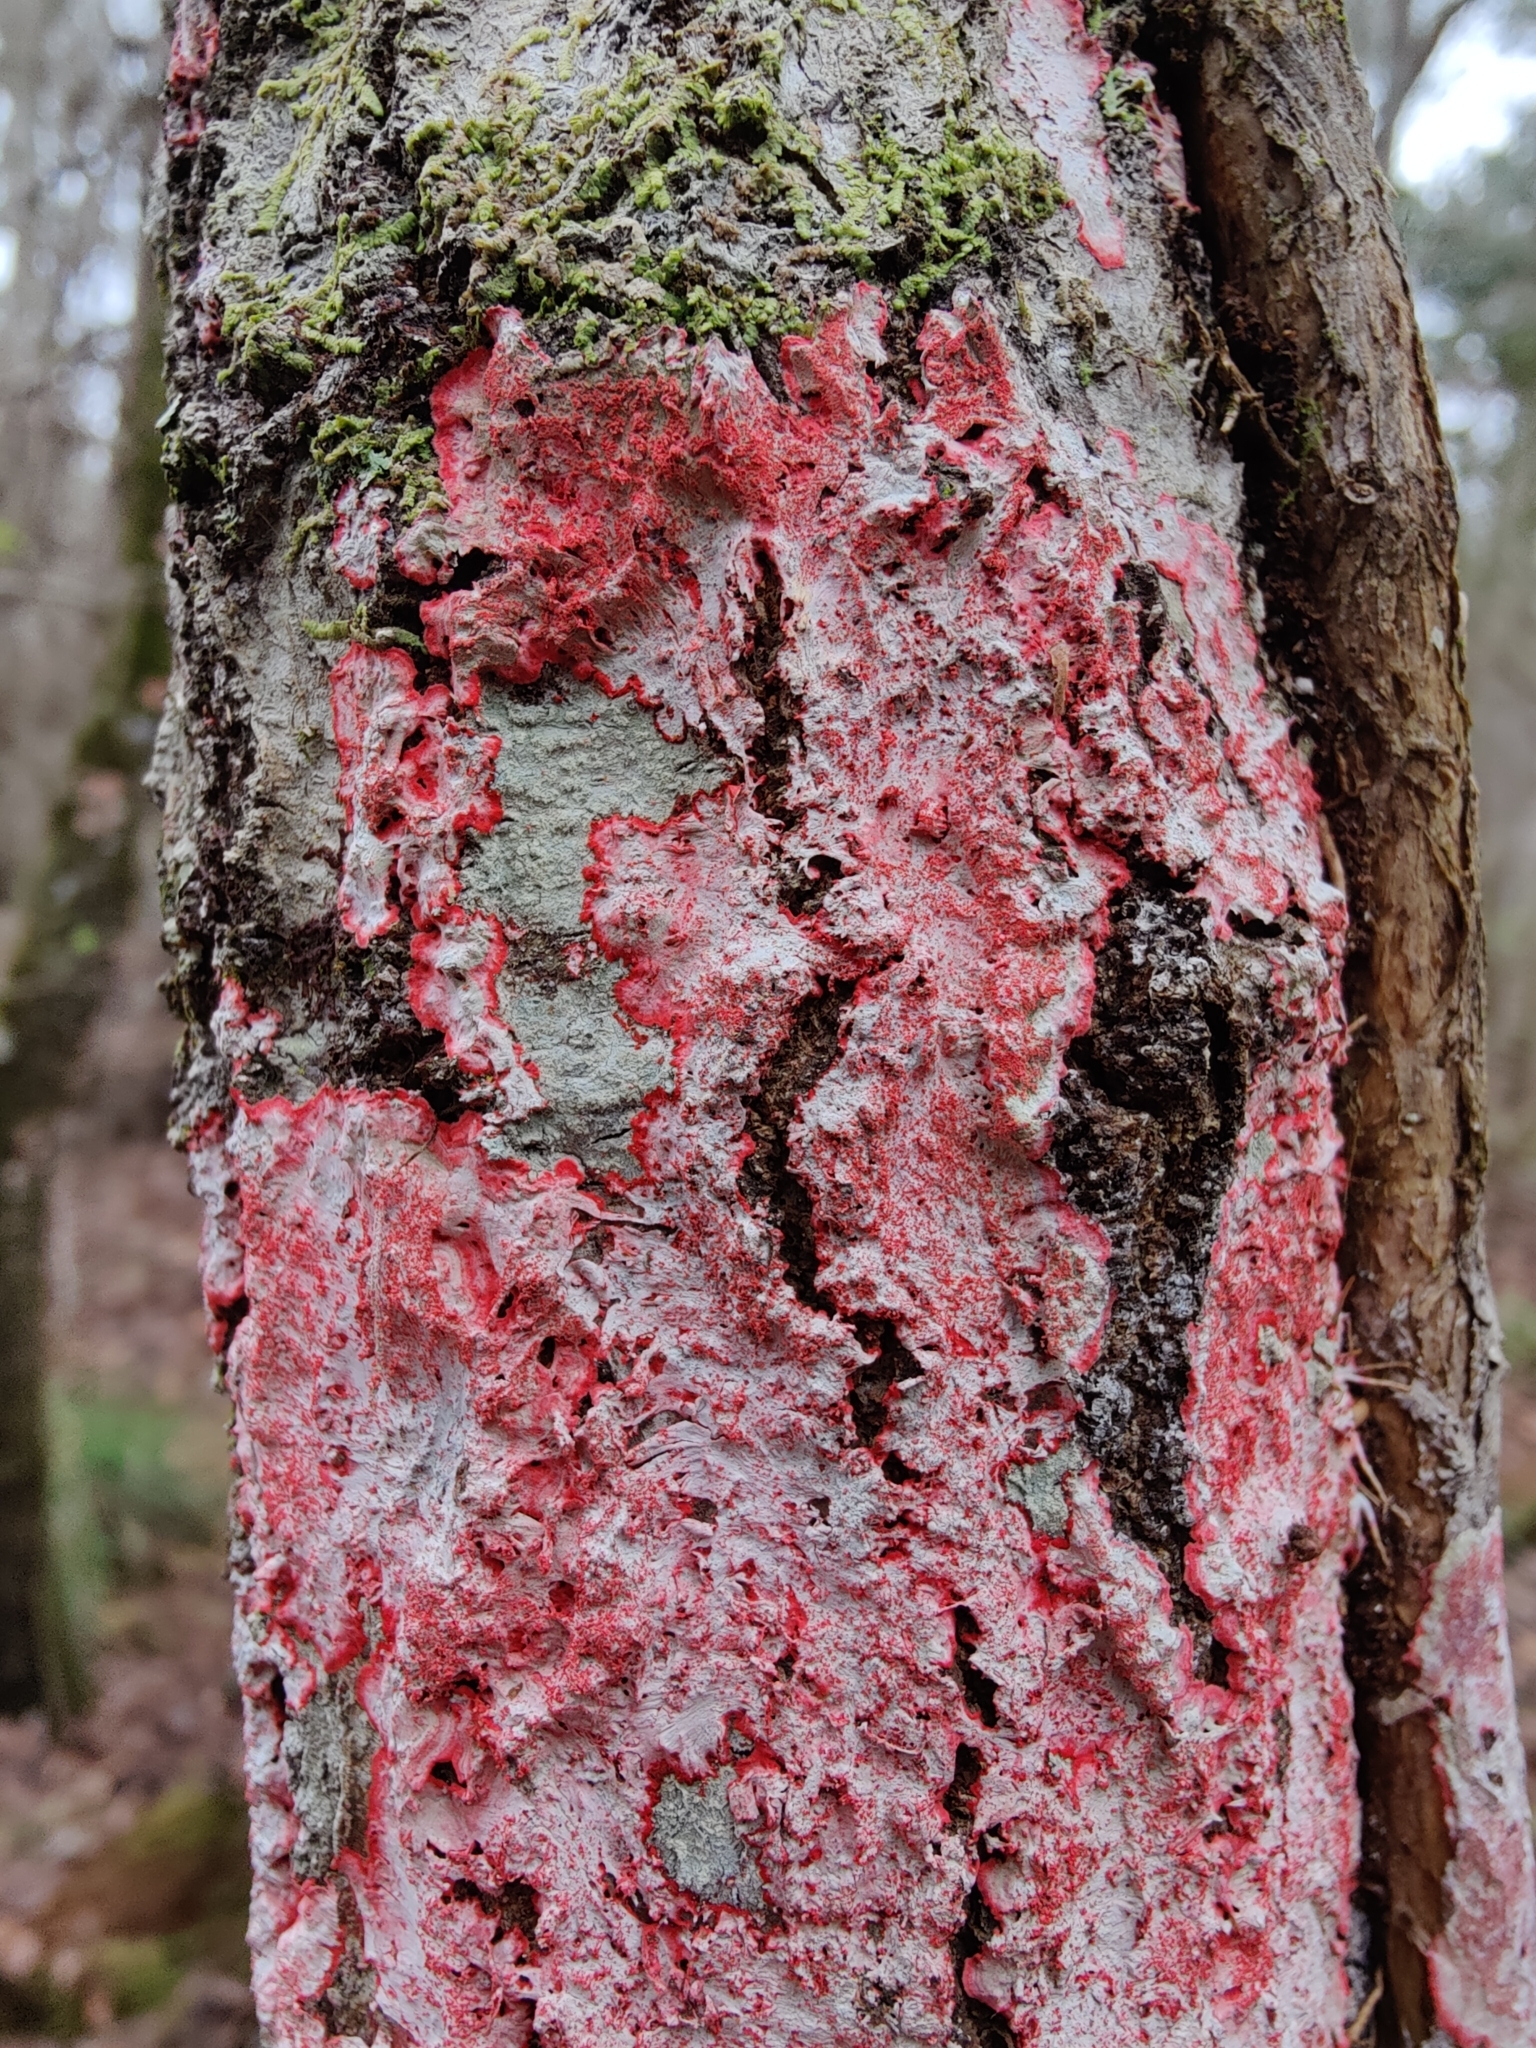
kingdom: Fungi
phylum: Ascomycota
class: Arthoniomycetes
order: Arthoniales
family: Arthoniaceae
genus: Herpothallon
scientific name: Herpothallon rubrocinctum
